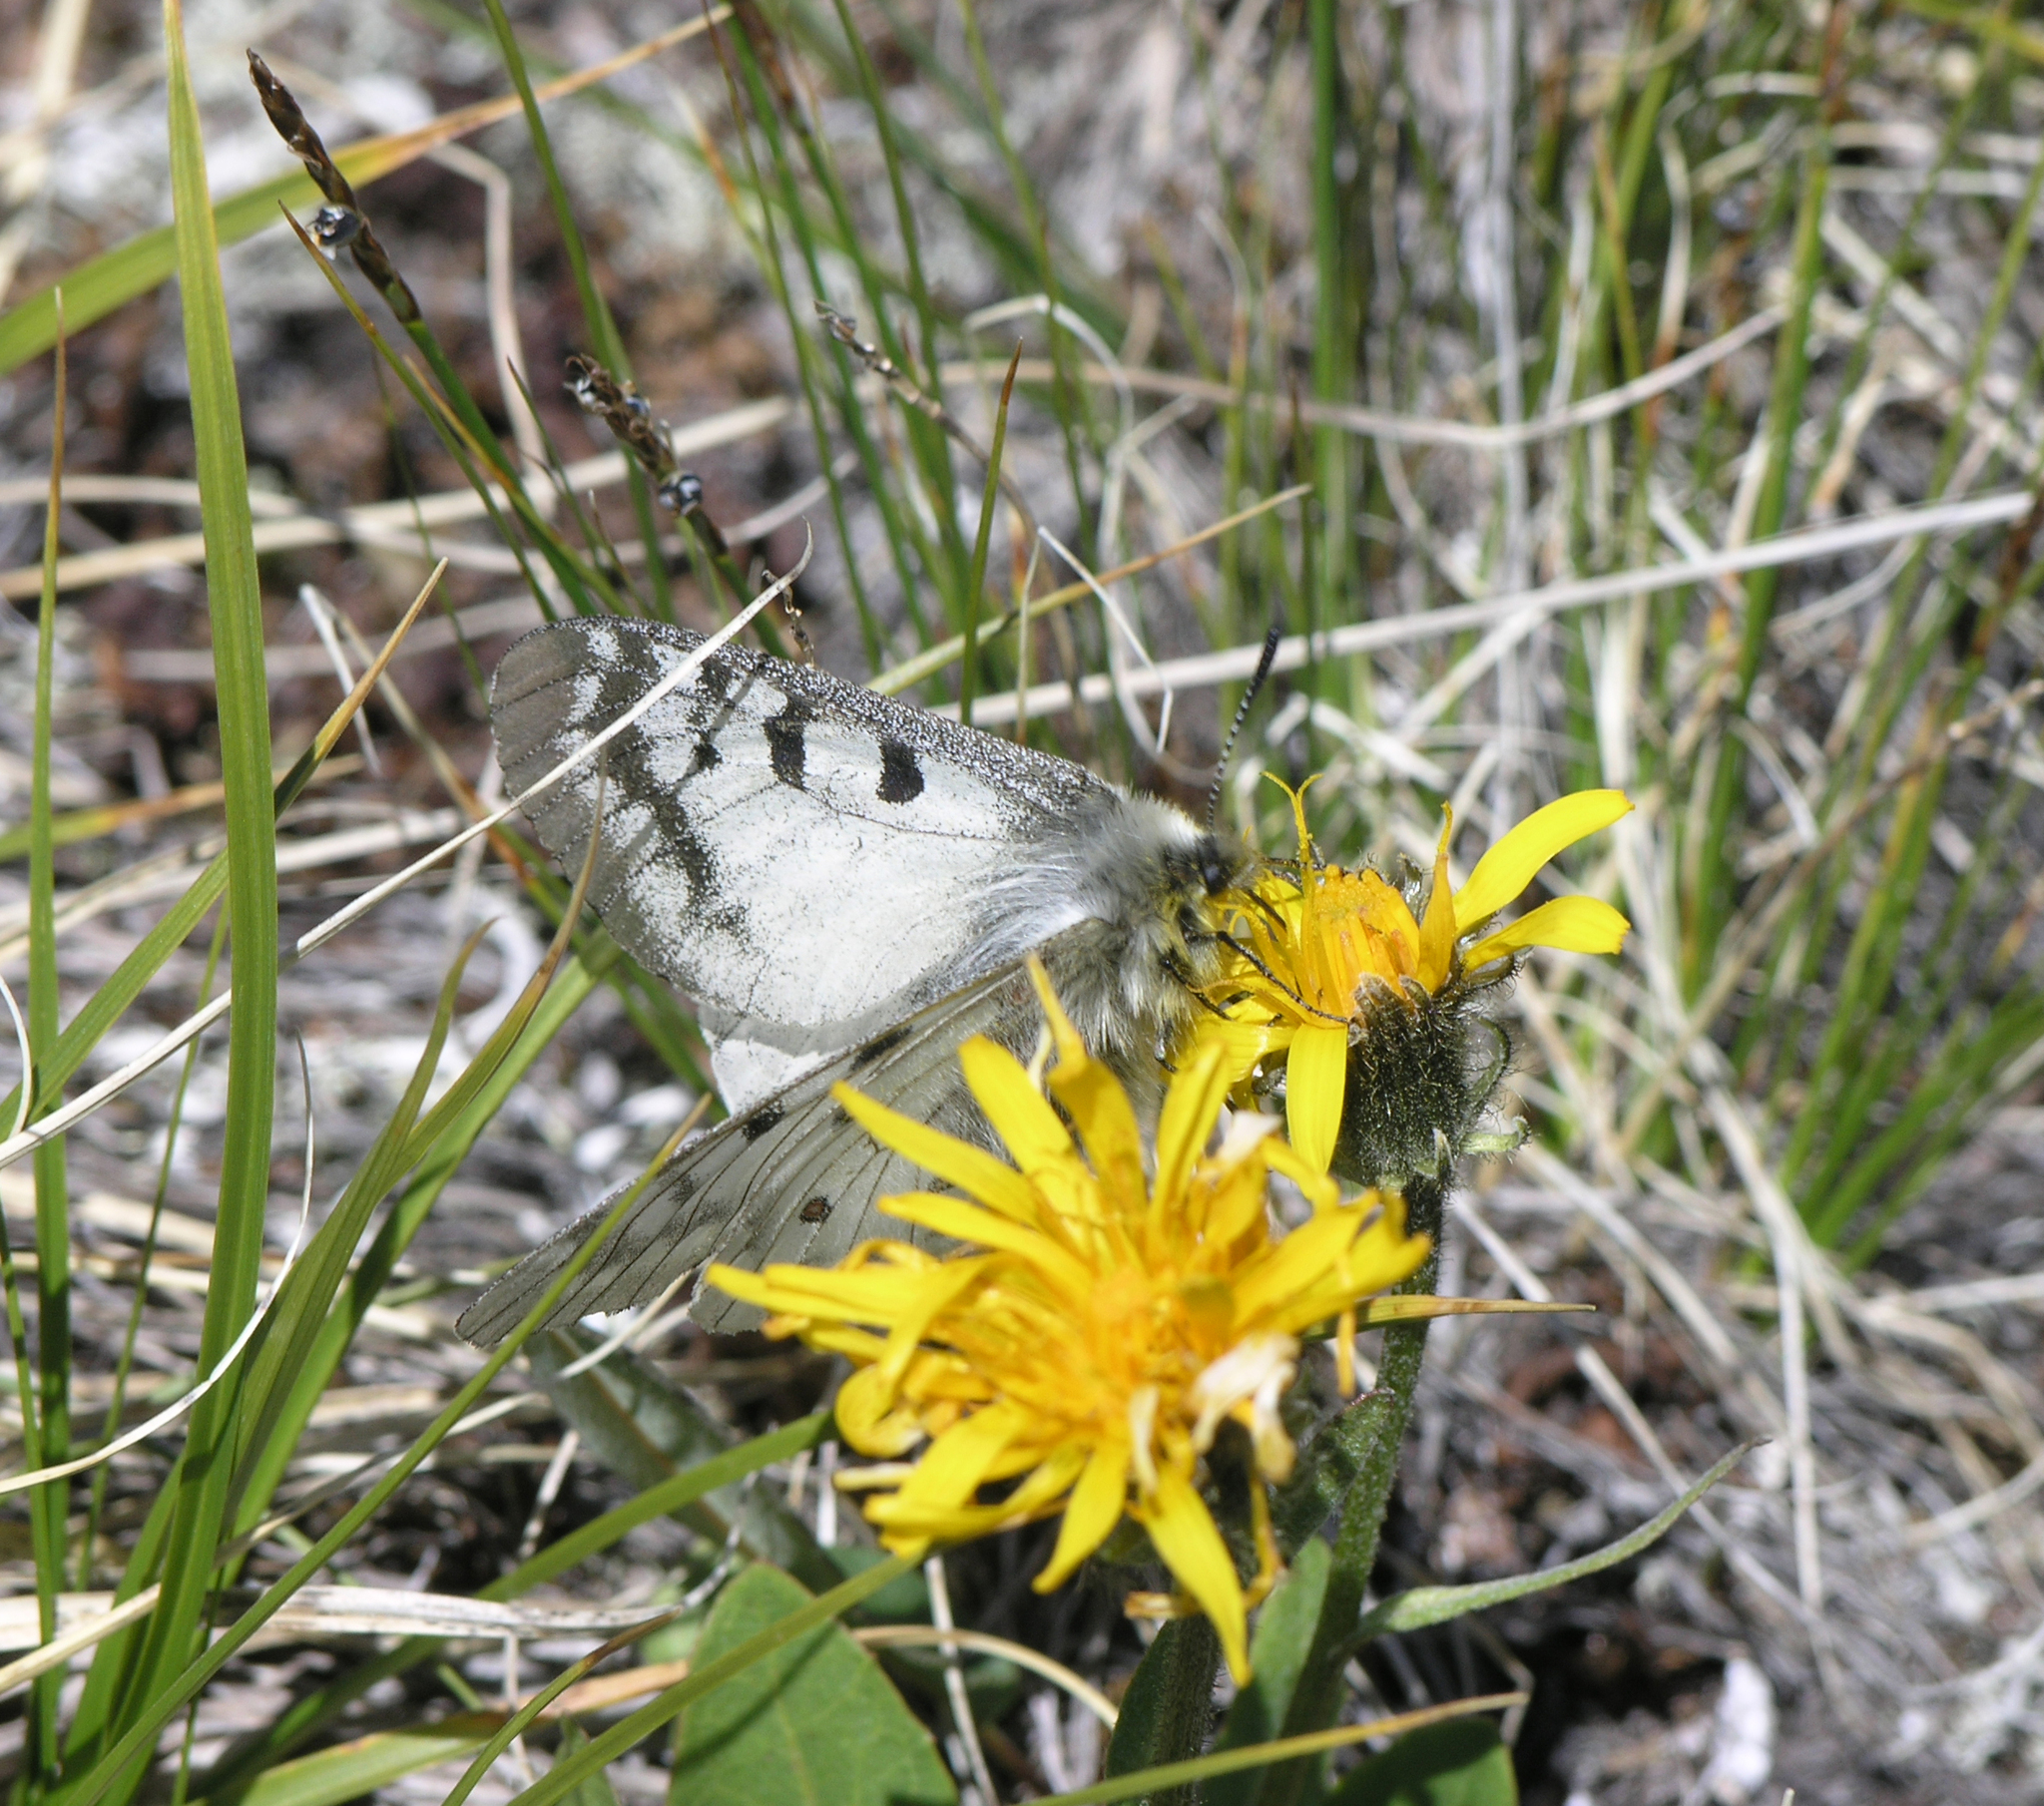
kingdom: Animalia
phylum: Arthropoda
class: Insecta
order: Lepidoptera
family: Papilionidae
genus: Parnassius
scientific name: Parnassius phoebus
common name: Small apollo
